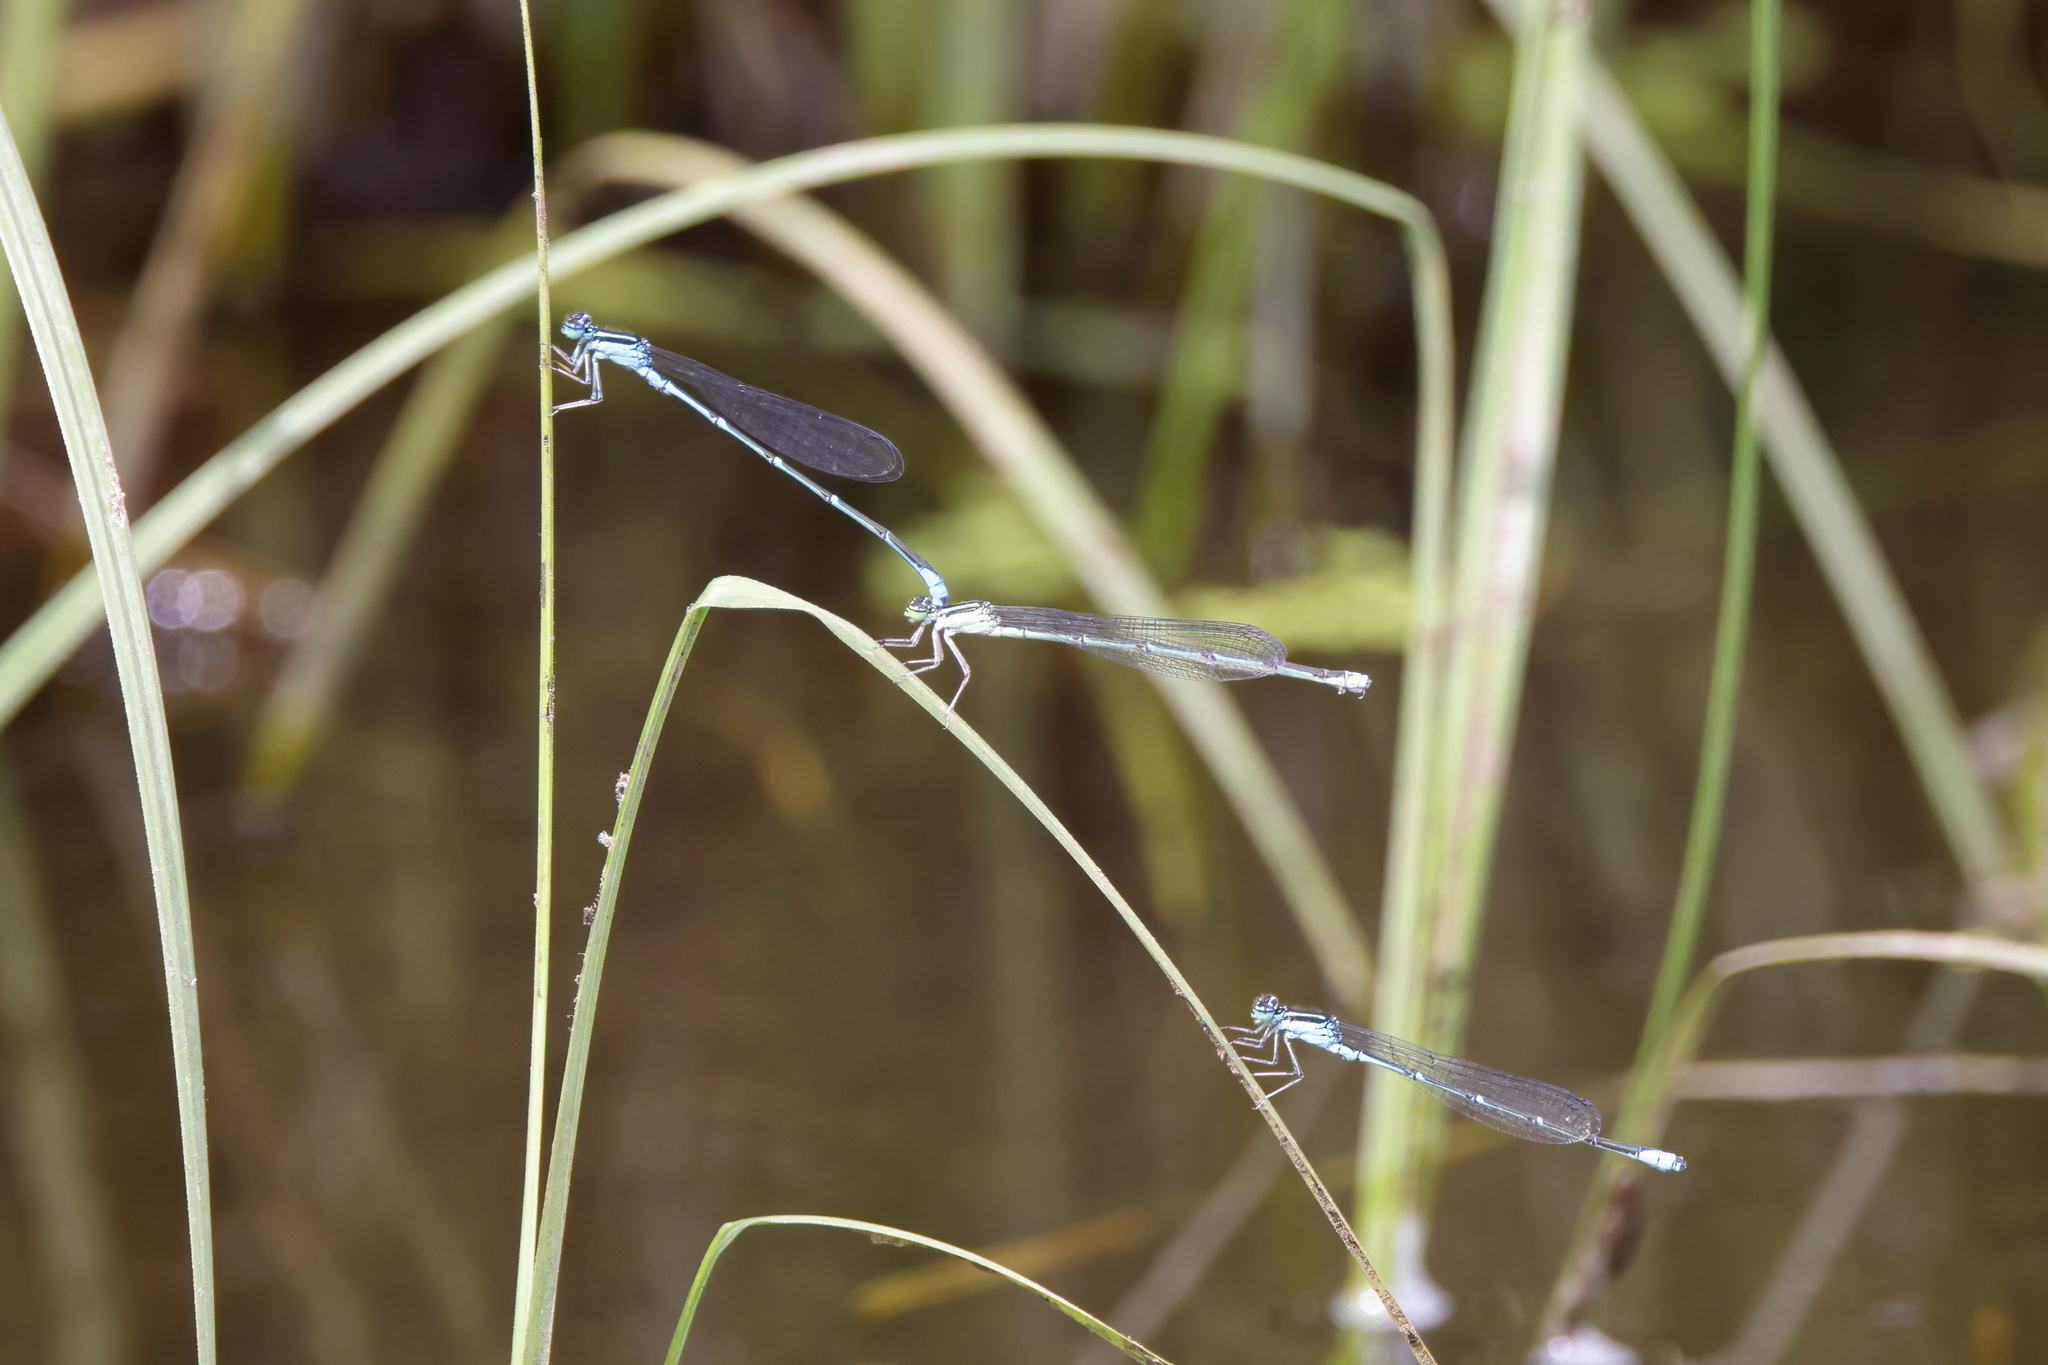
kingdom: Animalia
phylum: Arthropoda
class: Insecta
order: Odonata
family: Coenagrionidae
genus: Enallagma
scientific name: Enallagma exsulans
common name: Stream bluet
